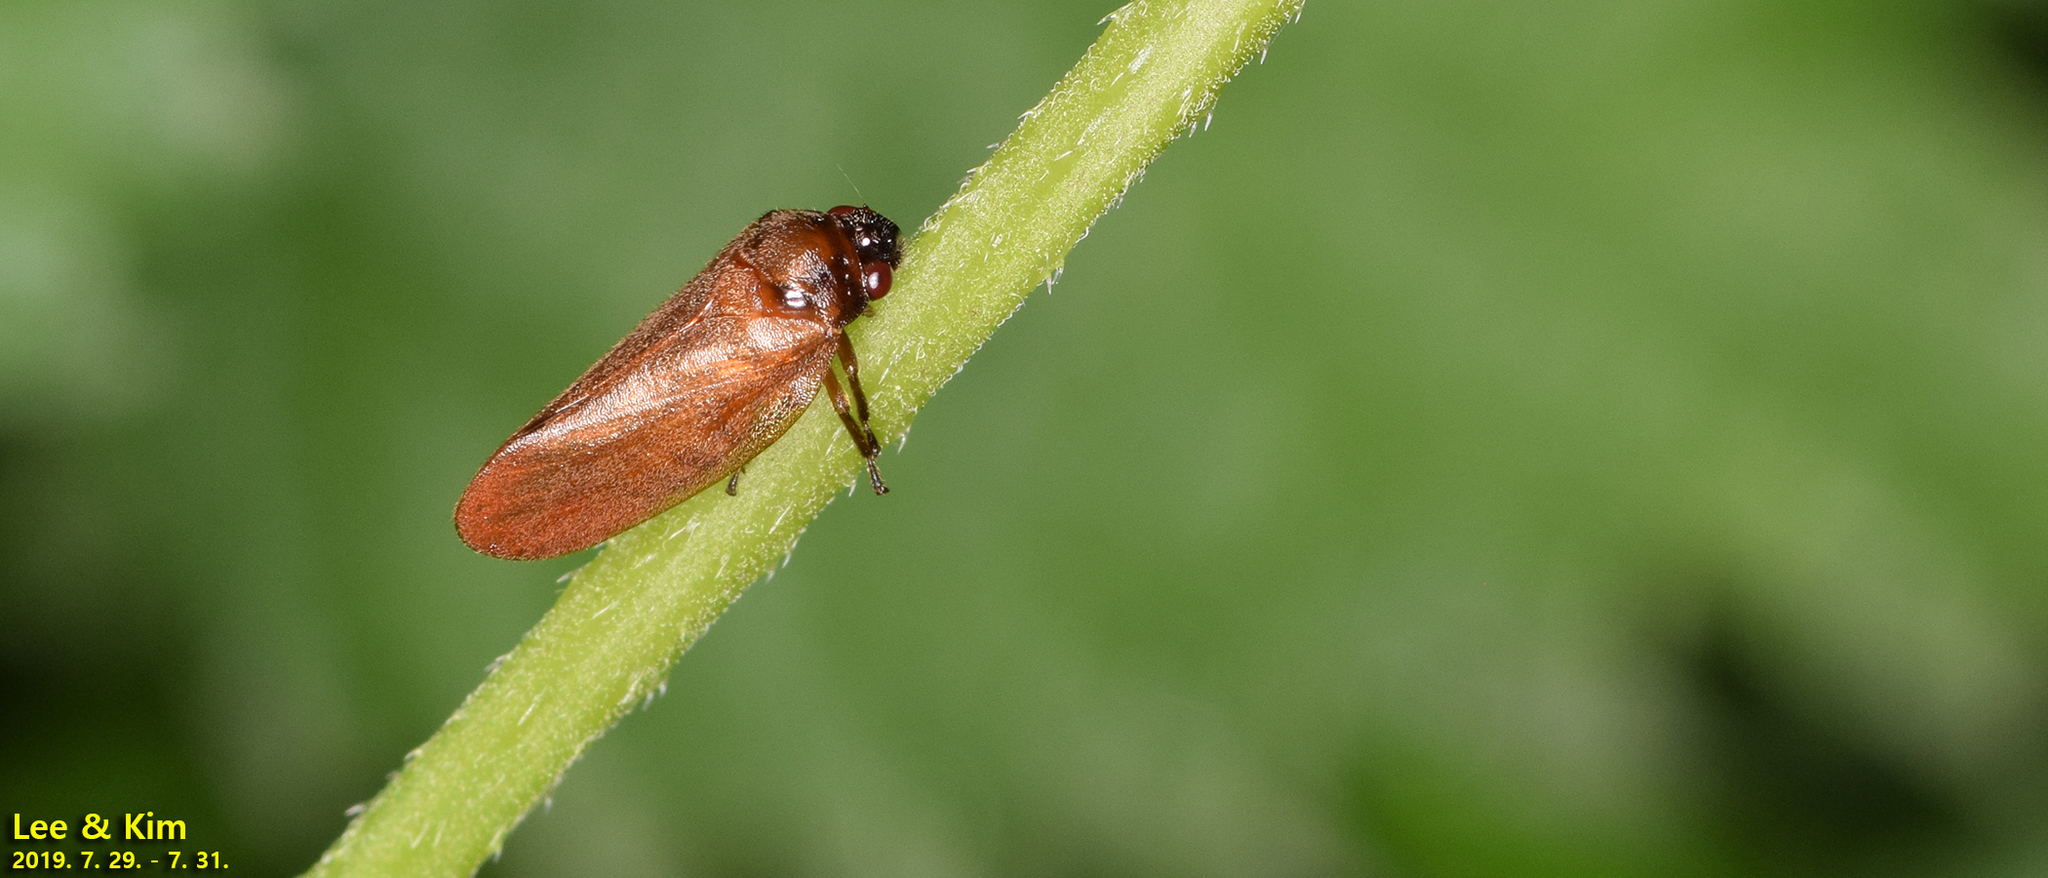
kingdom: Animalia
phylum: Arthropoda
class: Insecta
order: Hemiptera
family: Cercopidae
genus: Eoscarta
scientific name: Eoscarta assimilis
